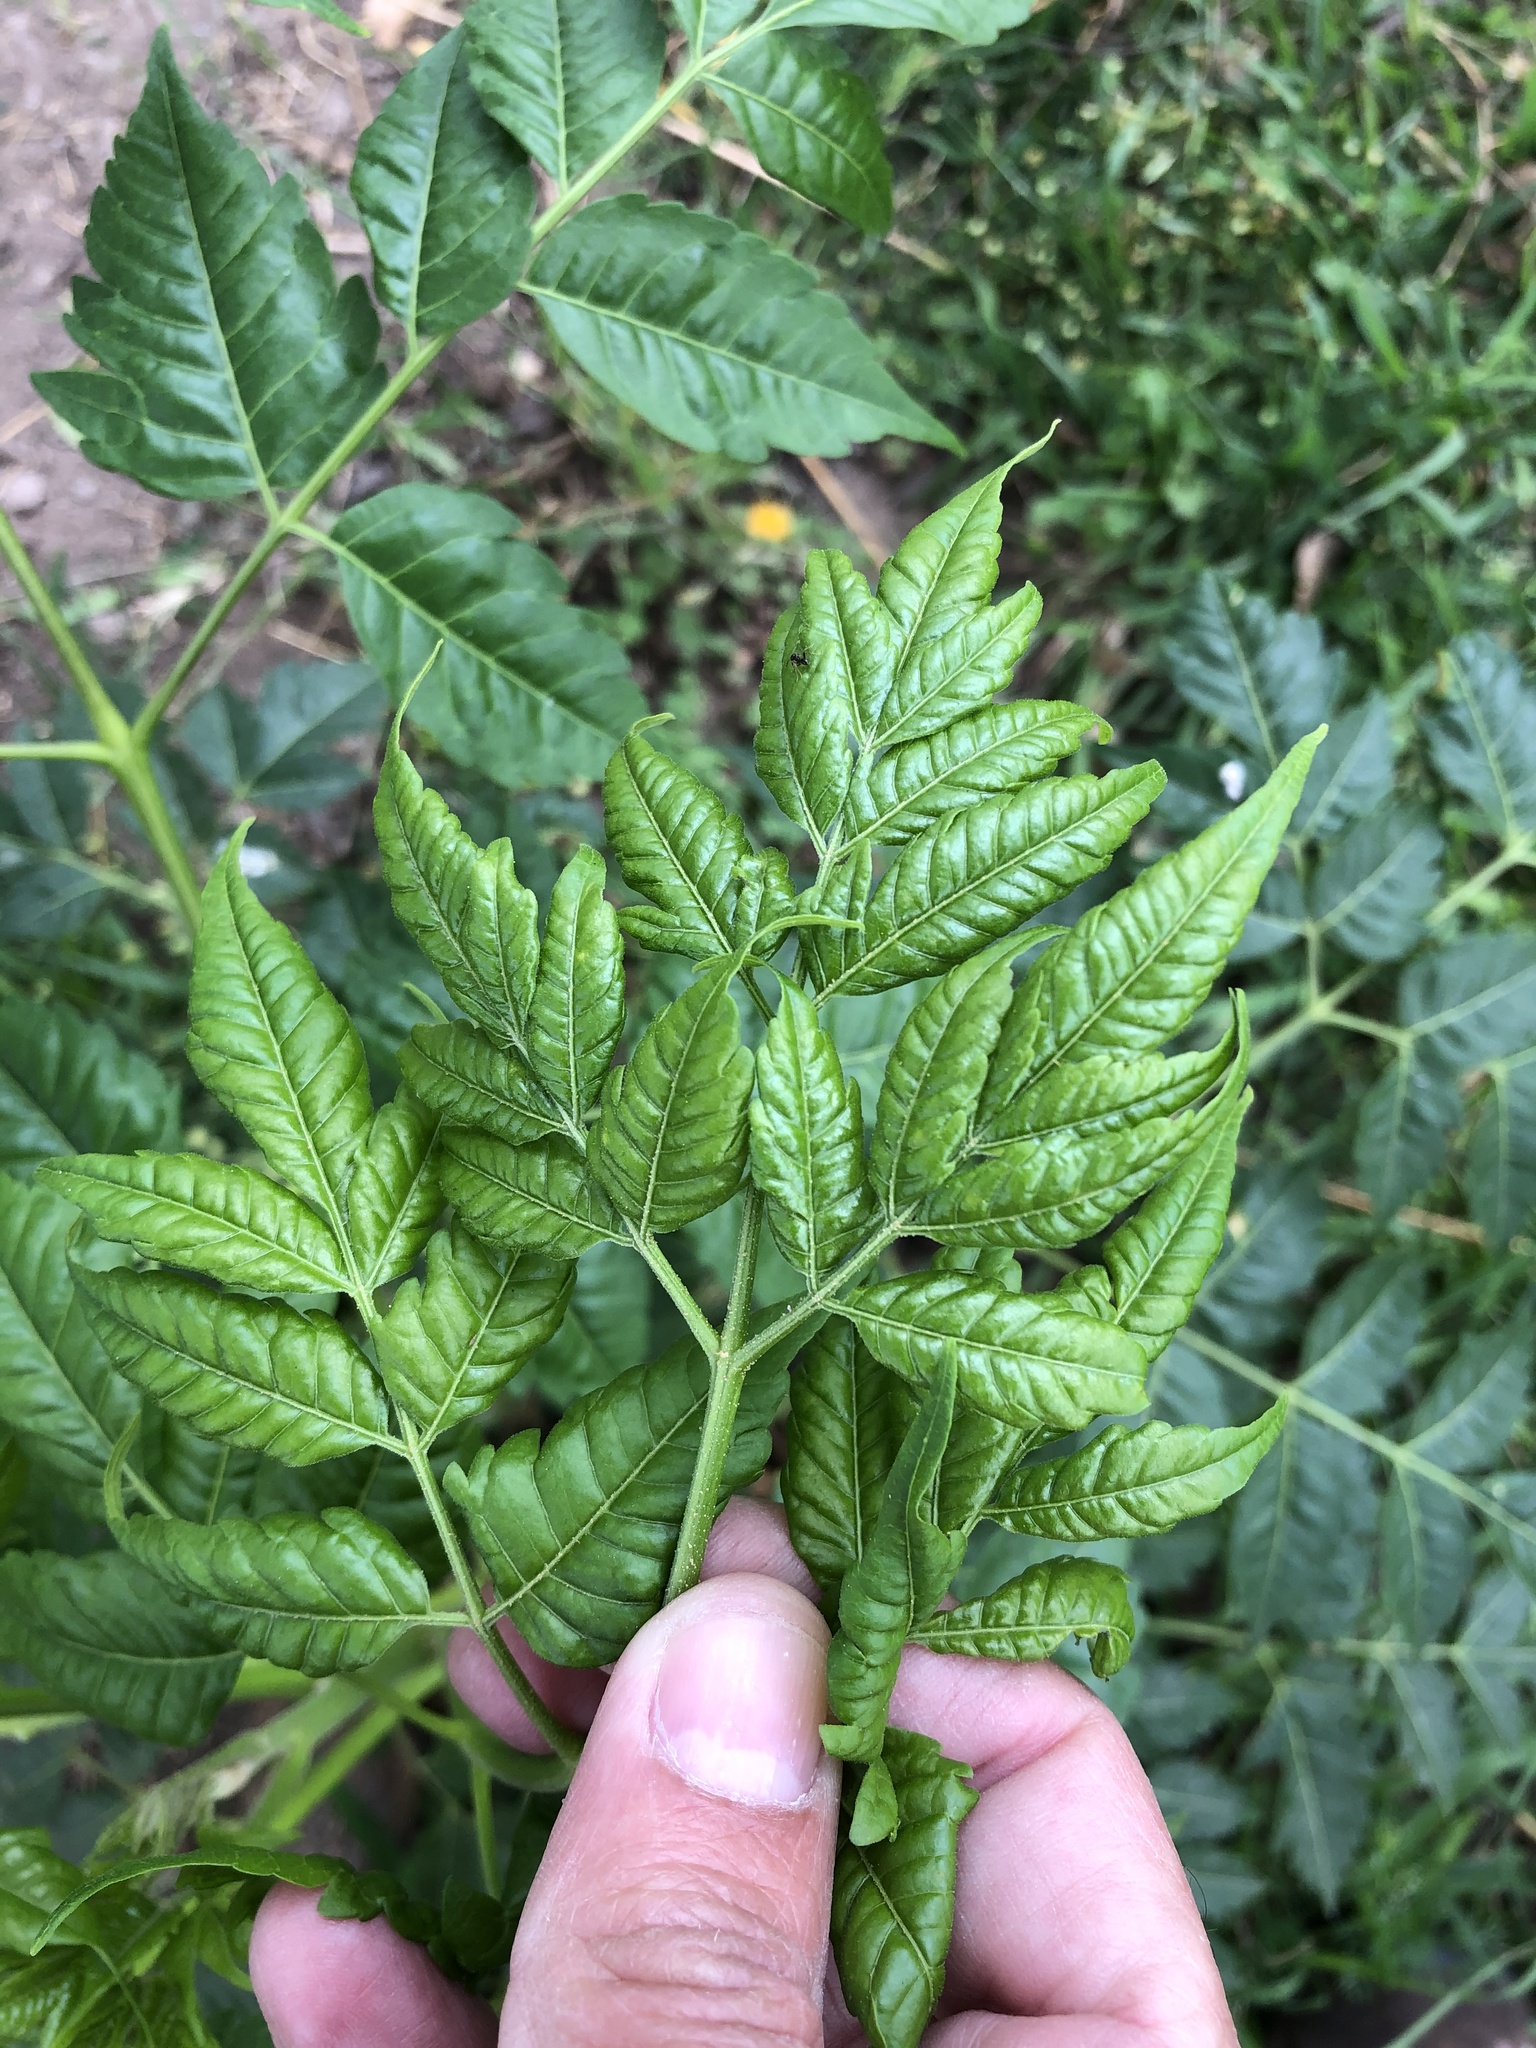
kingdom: Plantae
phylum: Tracheophyta
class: Magnoliopsida
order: Sapindales
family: Meliaceae
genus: Melia
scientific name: Melia azedarach
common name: Chinaberrytree
